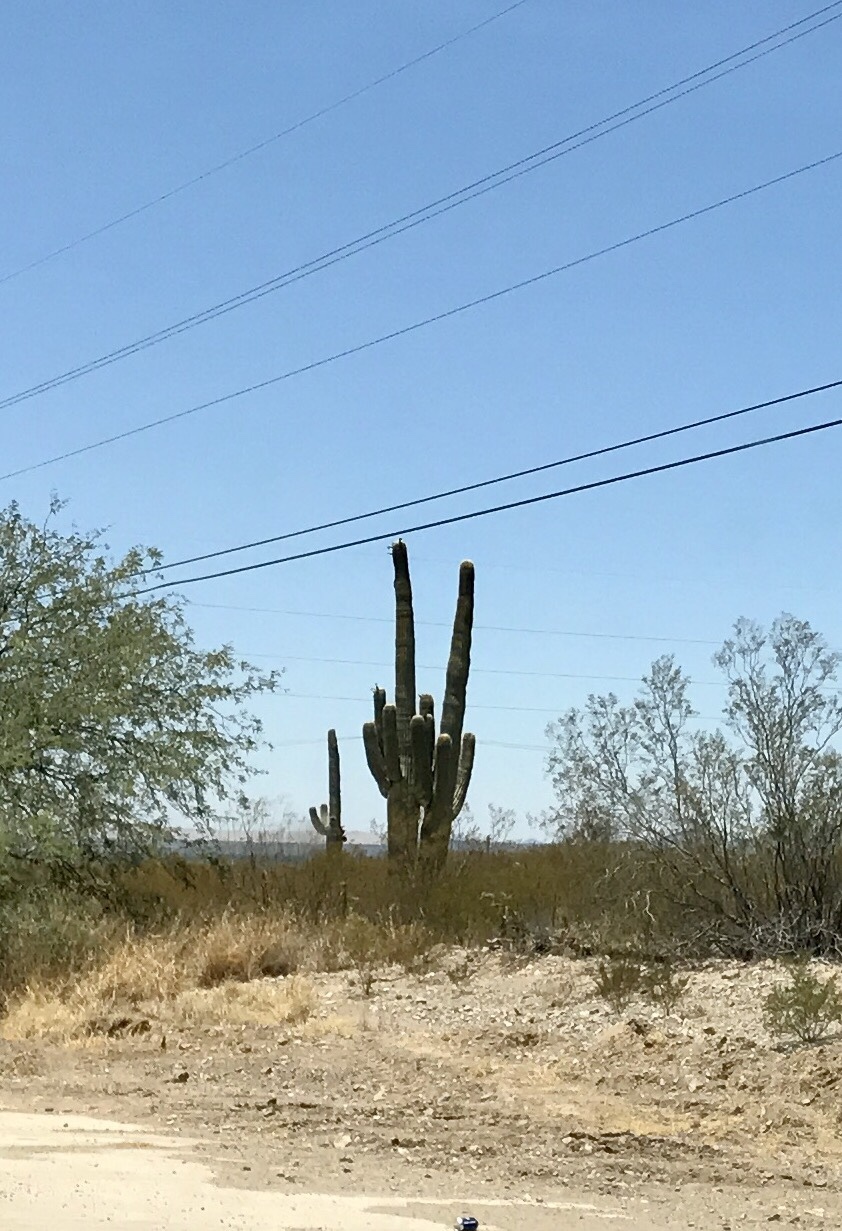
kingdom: Plantae
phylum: Tracheophyta
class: Magnoliopsida
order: Caryophyllales
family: Cactaceae
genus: Carnegiea
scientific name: Carnegiea gigantea
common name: Saguaro
